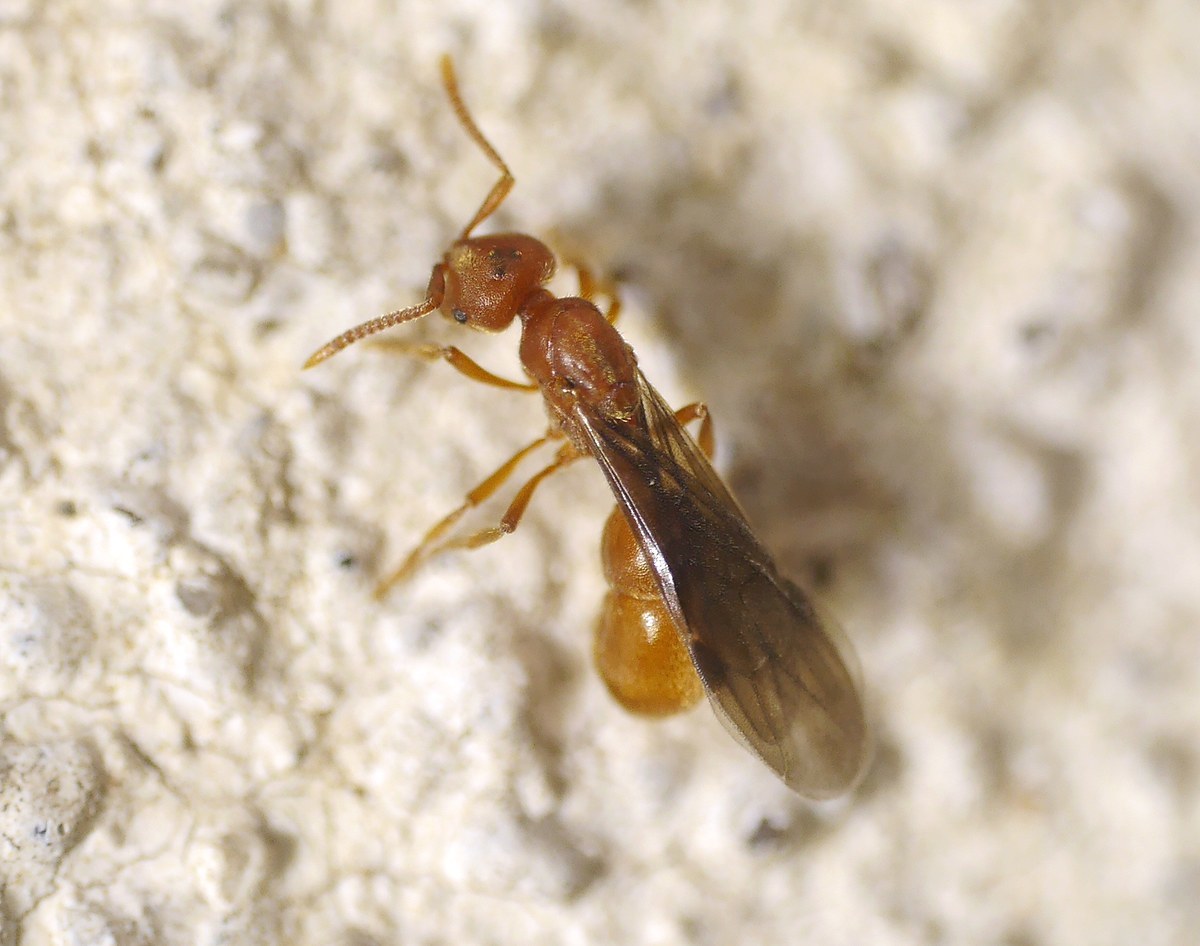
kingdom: Animalia
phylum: Arthropoda
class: Insecta
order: Hymenoptera
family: Formicidae
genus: Proceratium
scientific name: Proceratium melinum
